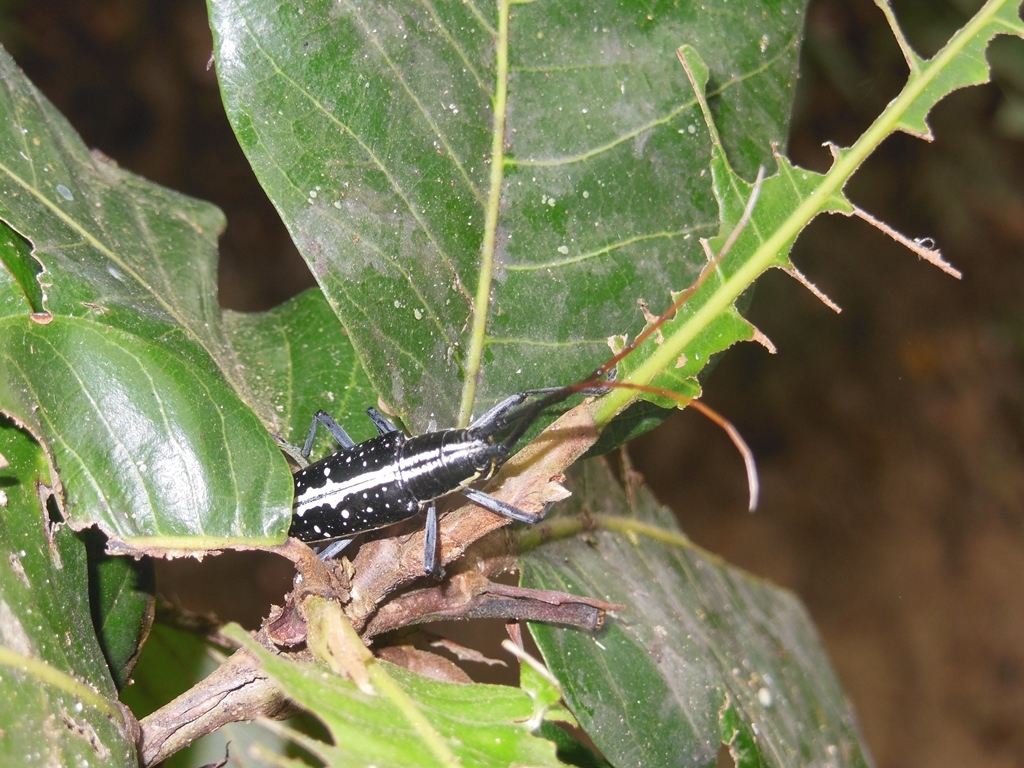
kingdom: Animalia
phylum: Arthropoda
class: Insecta
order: Coleoptera
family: Cerambycidae
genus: Ptychodes
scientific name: Ptychodes alboguttatus
